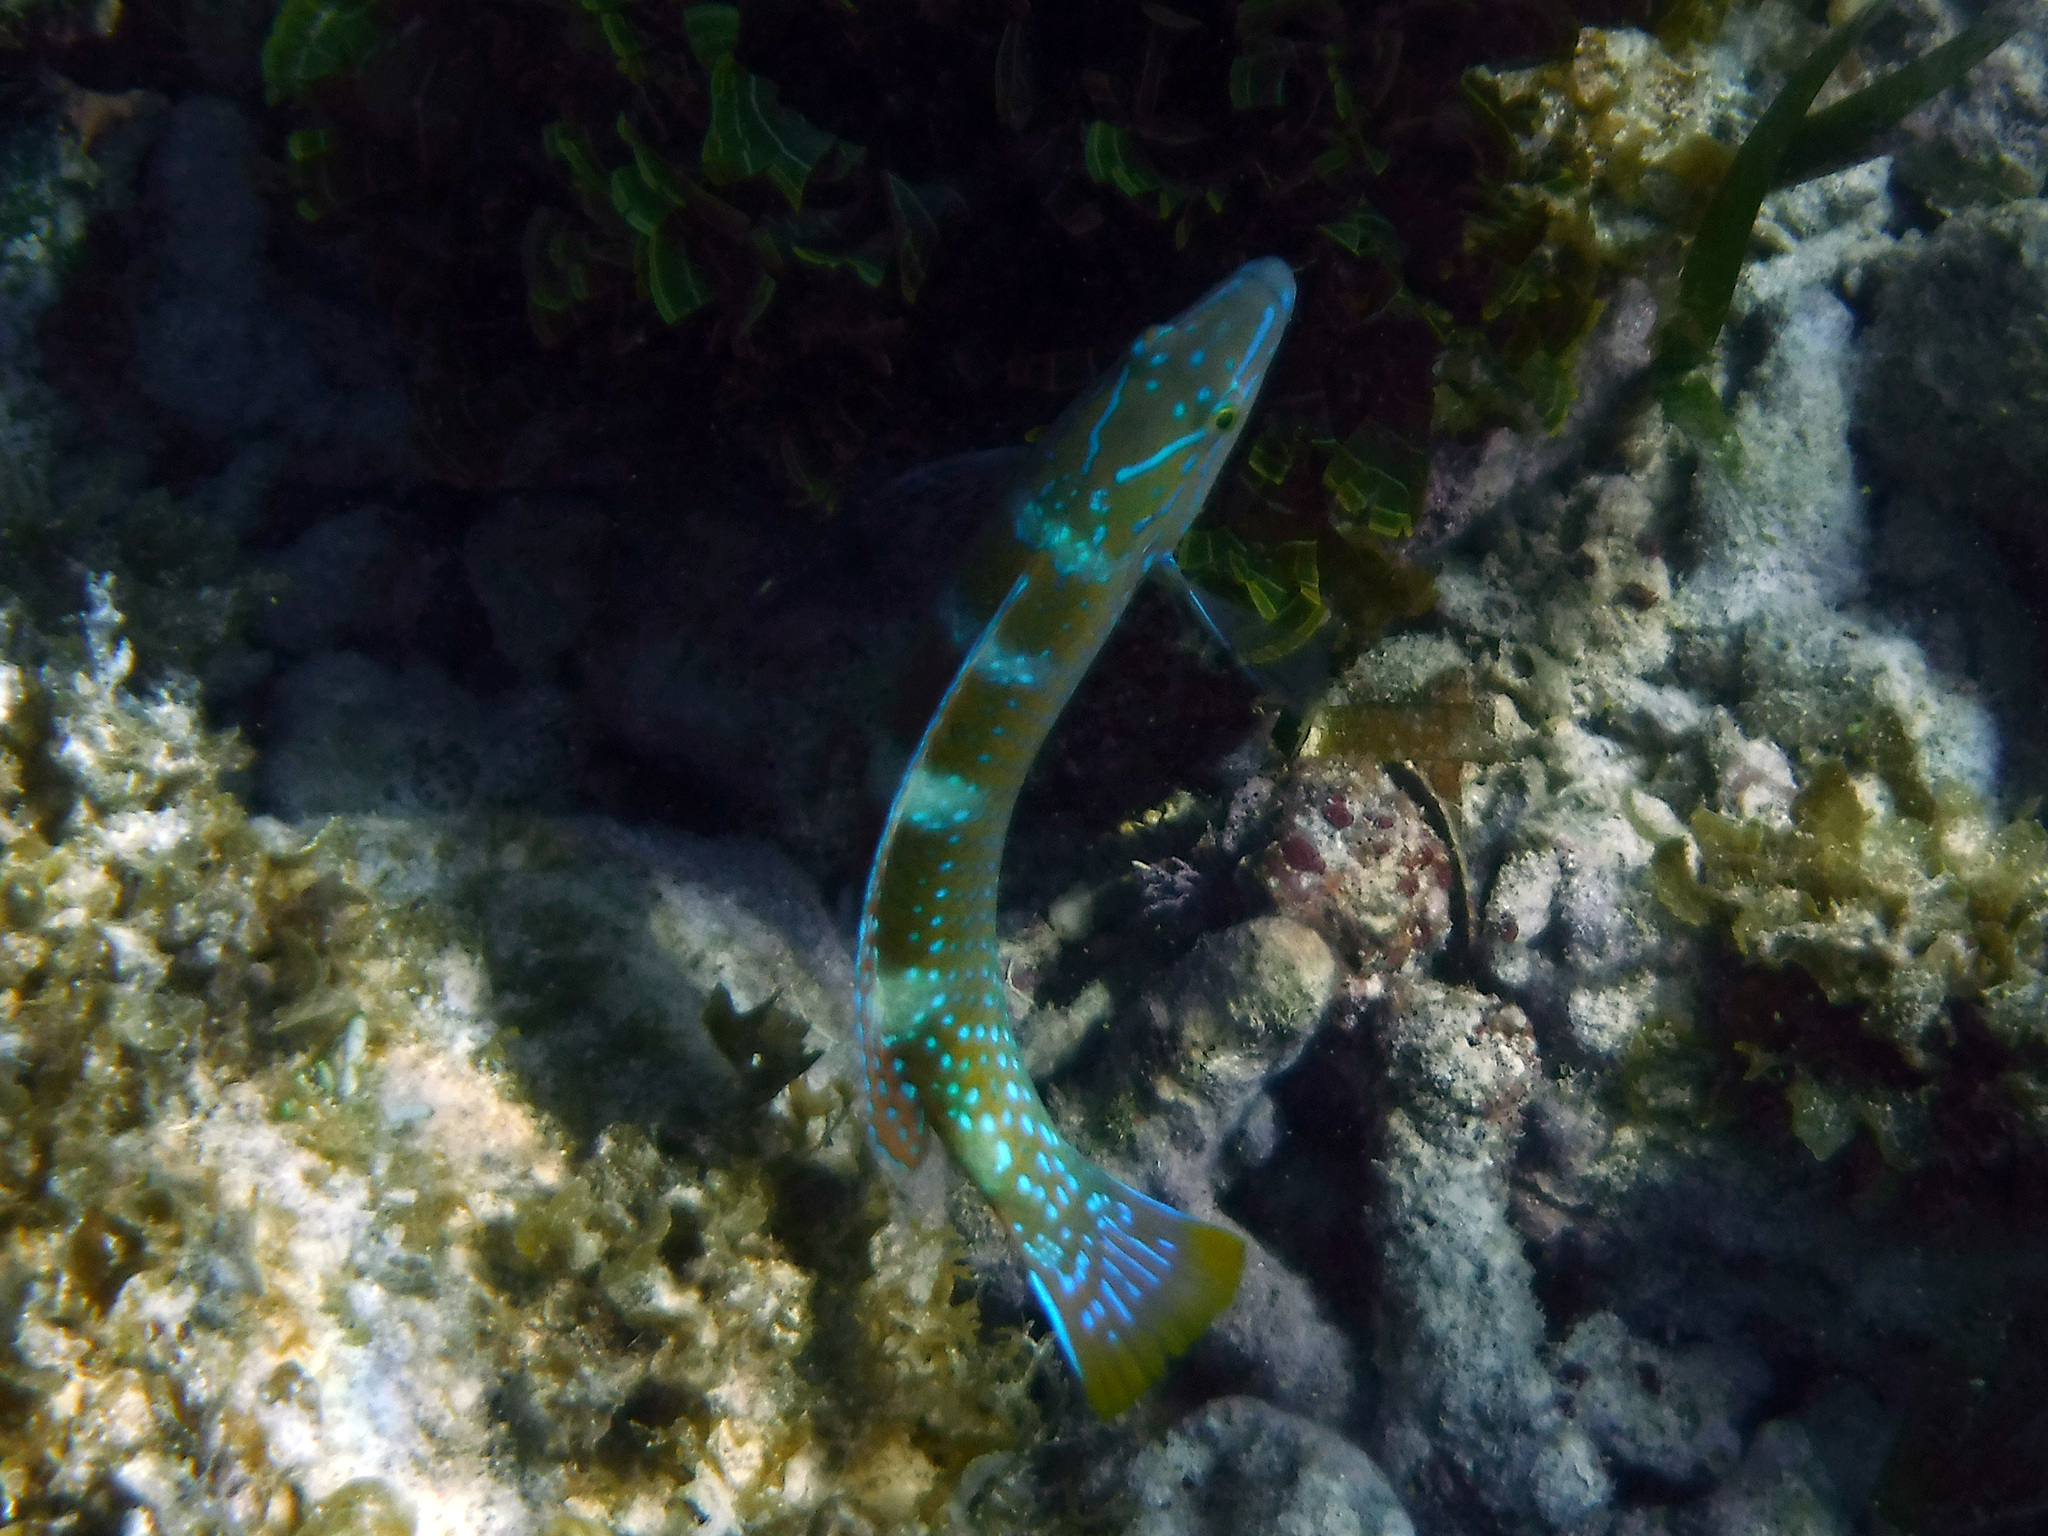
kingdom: Animalia
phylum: Chordata
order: Perciformes
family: Labridae
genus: Halichoeres
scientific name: Halichoeres radiatus
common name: Puddingwife
